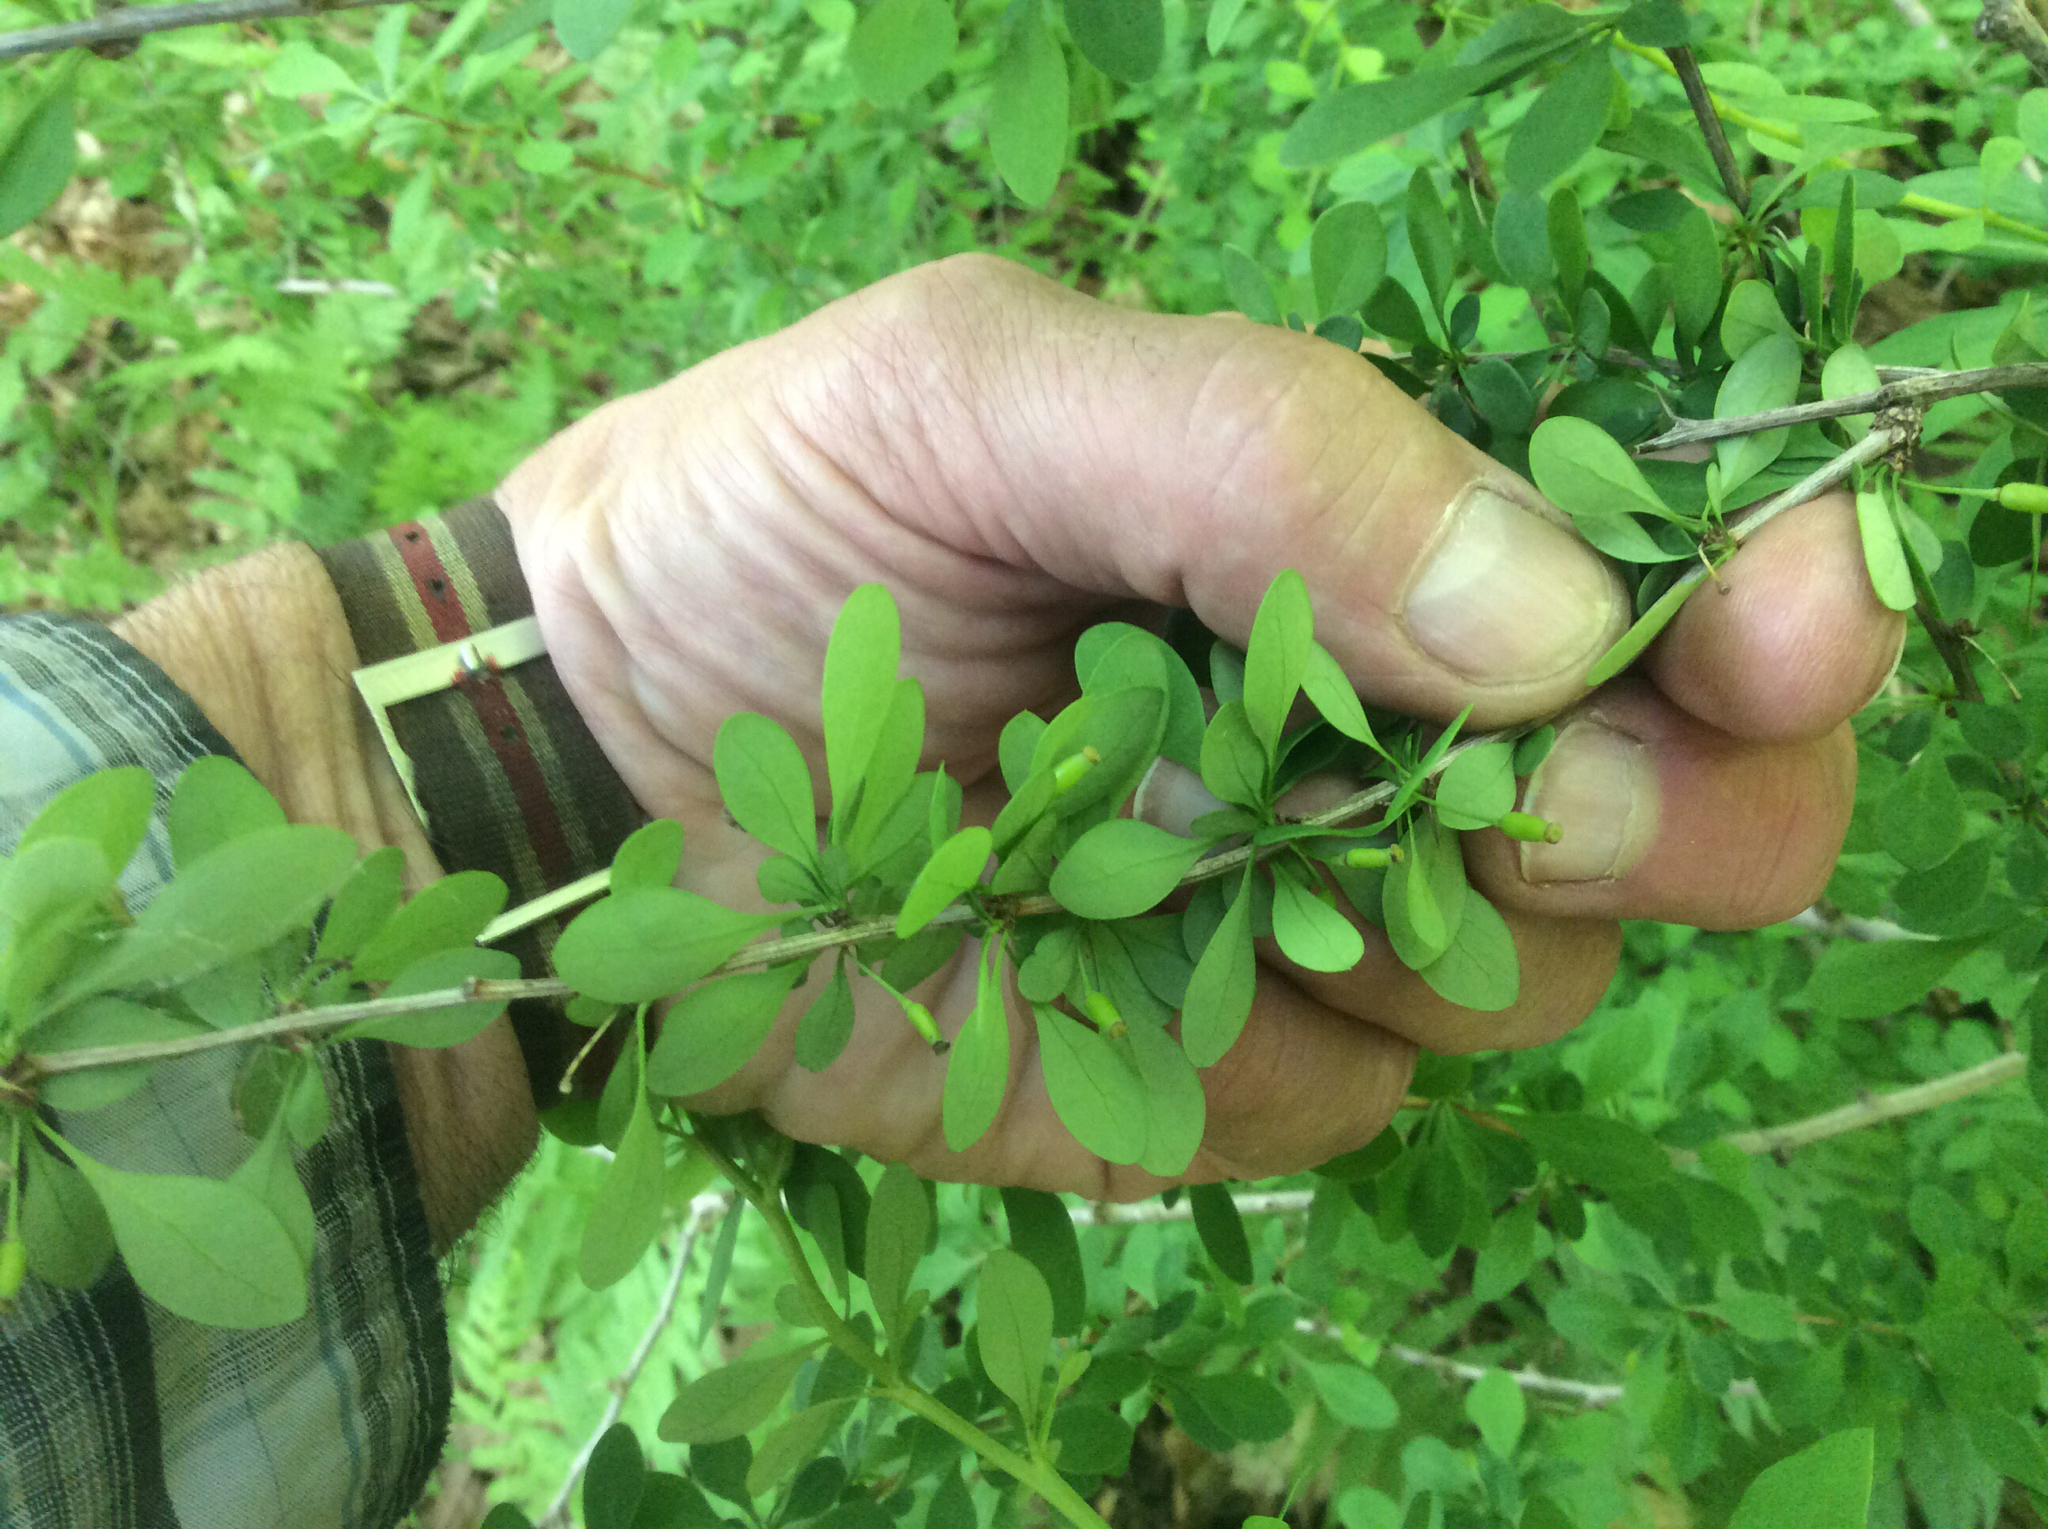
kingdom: Plantae
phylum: Tracheophyta
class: Magnoliopsida
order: Ranunculales
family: Berberidaceae
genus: Berberis
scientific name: Berberis thunbergii
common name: Japanese barberry
